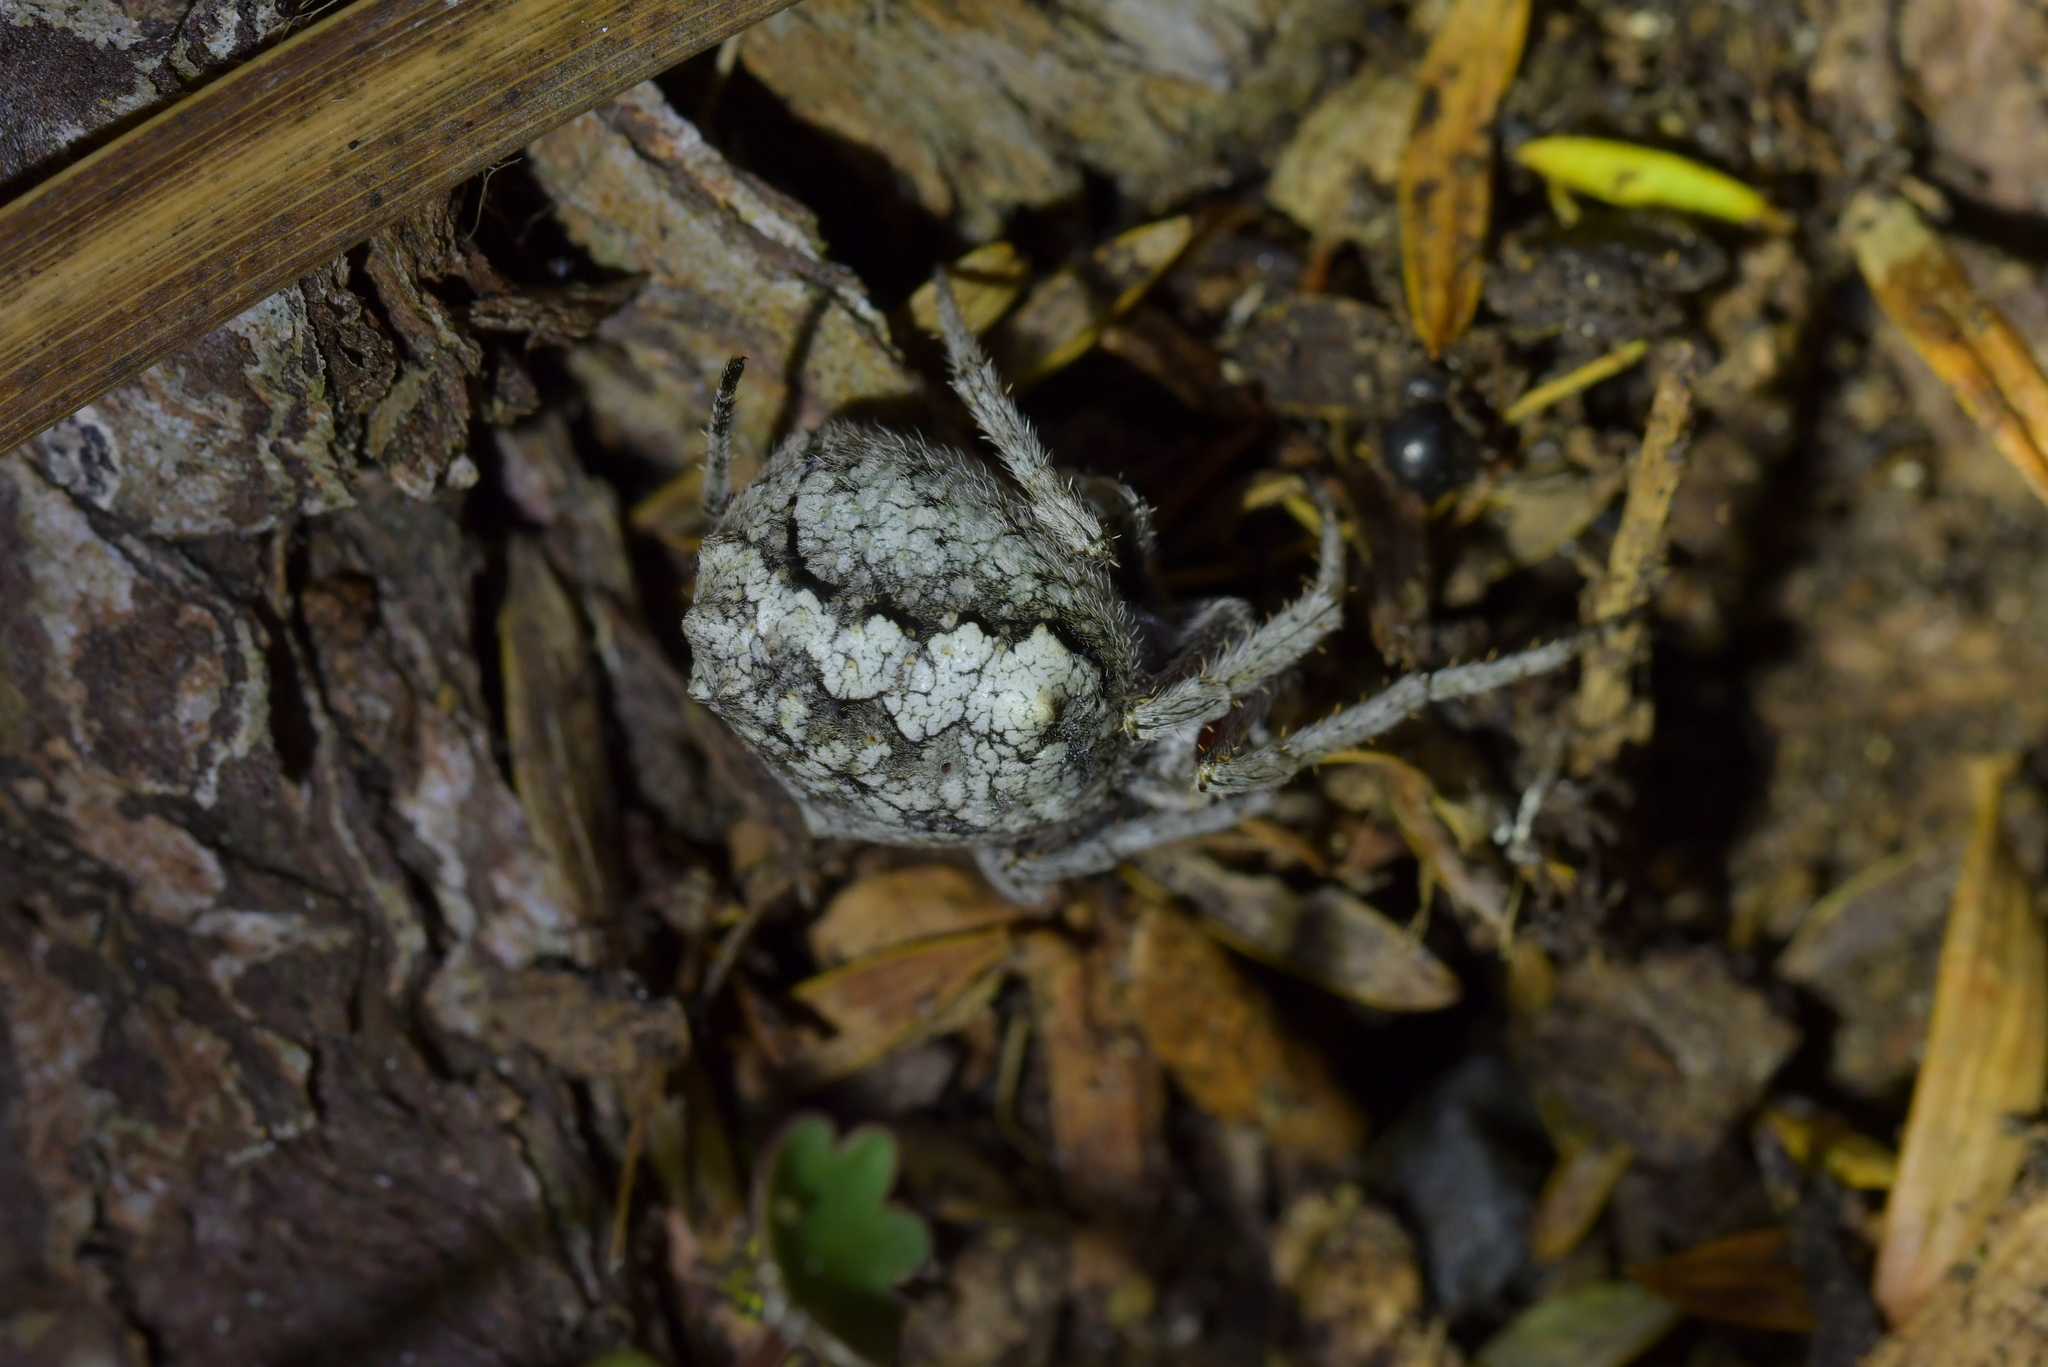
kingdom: Animalia
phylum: Arthropoda
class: Arachnida
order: Araneae
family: Araneidae
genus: Eriophora
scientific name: Eriophora pustulosa
